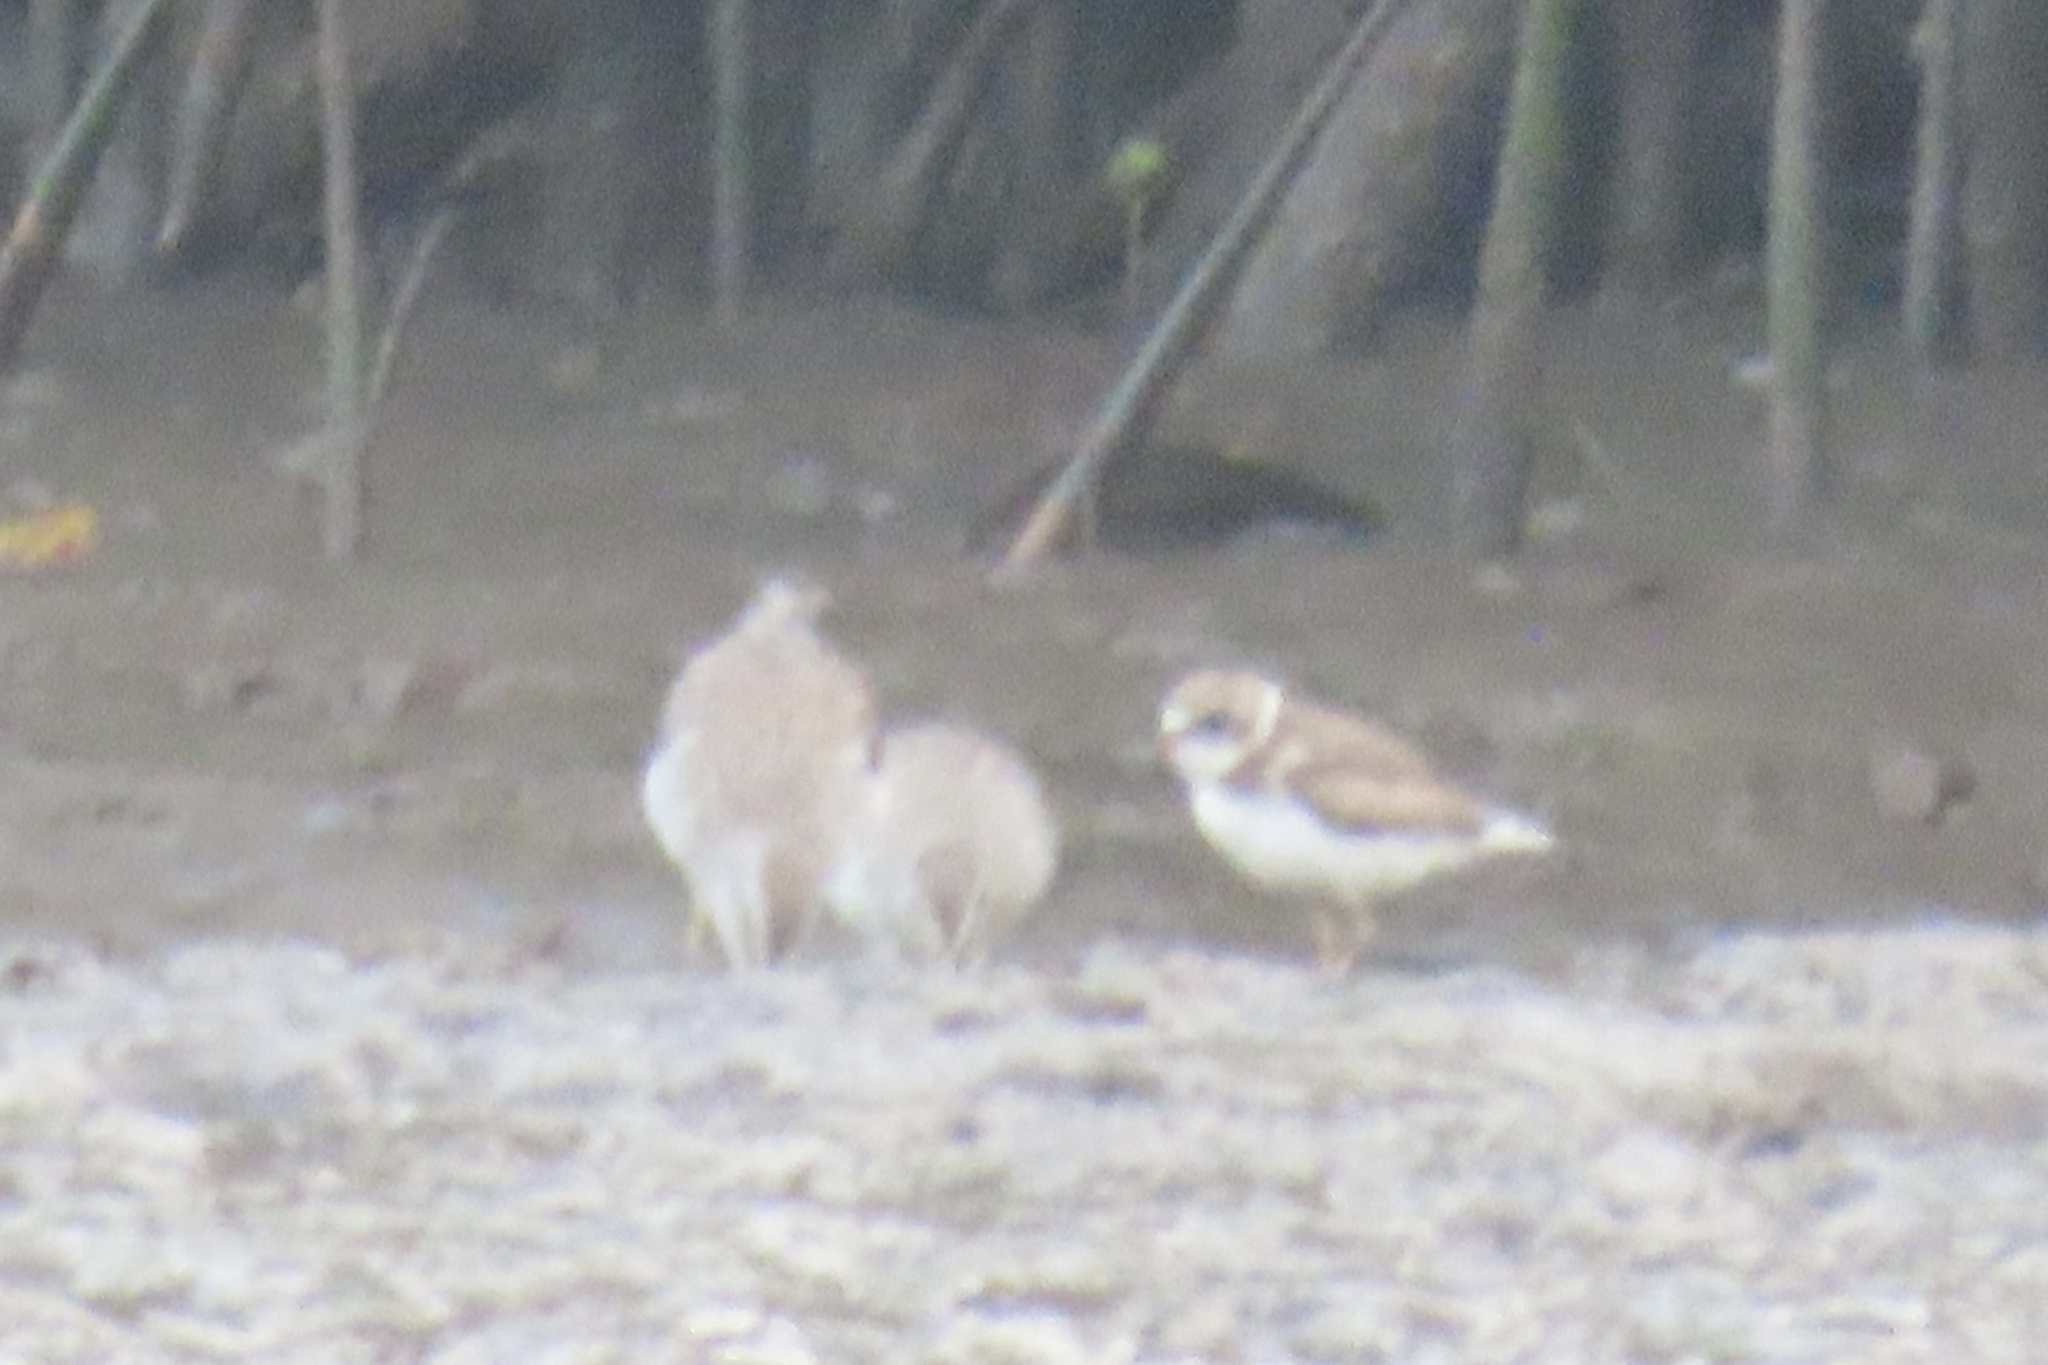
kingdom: Animalia
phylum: Chordata
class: Aves
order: Charadriiformes
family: Charadriidae
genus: Charadrius
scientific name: Charadrius semipalmatus
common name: Semipalmated plover
